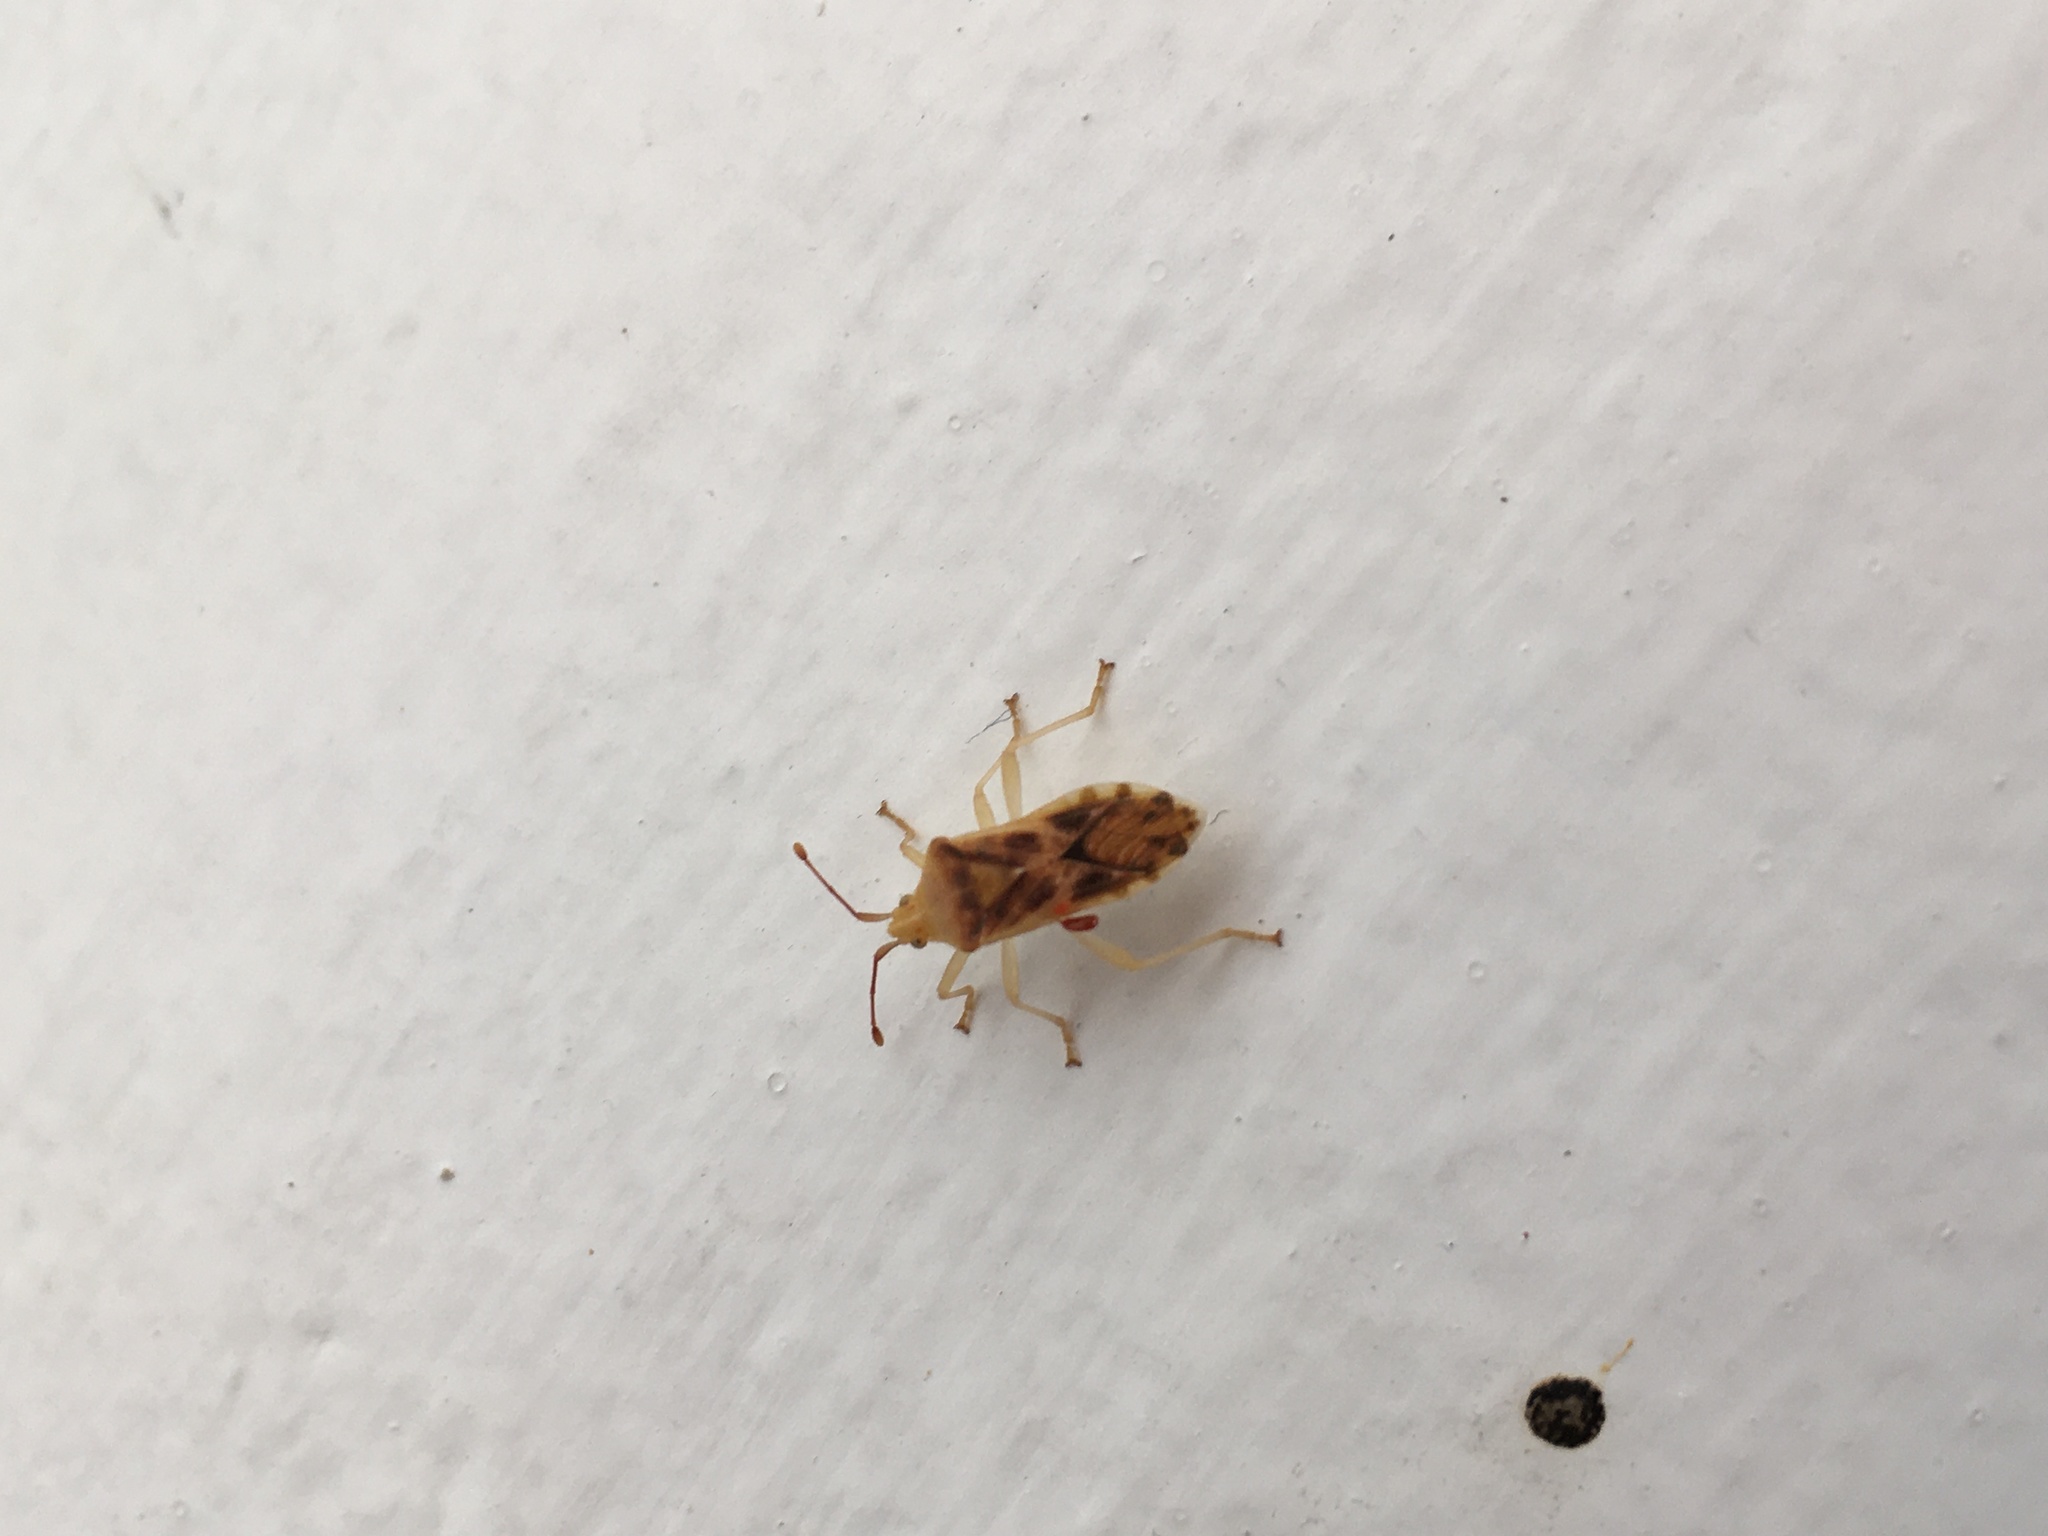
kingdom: Animalia
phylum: Arthropoda
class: Insecta
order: Hemiptera
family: Coreidae
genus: Cebrenistella
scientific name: Cebrenistella modesta
